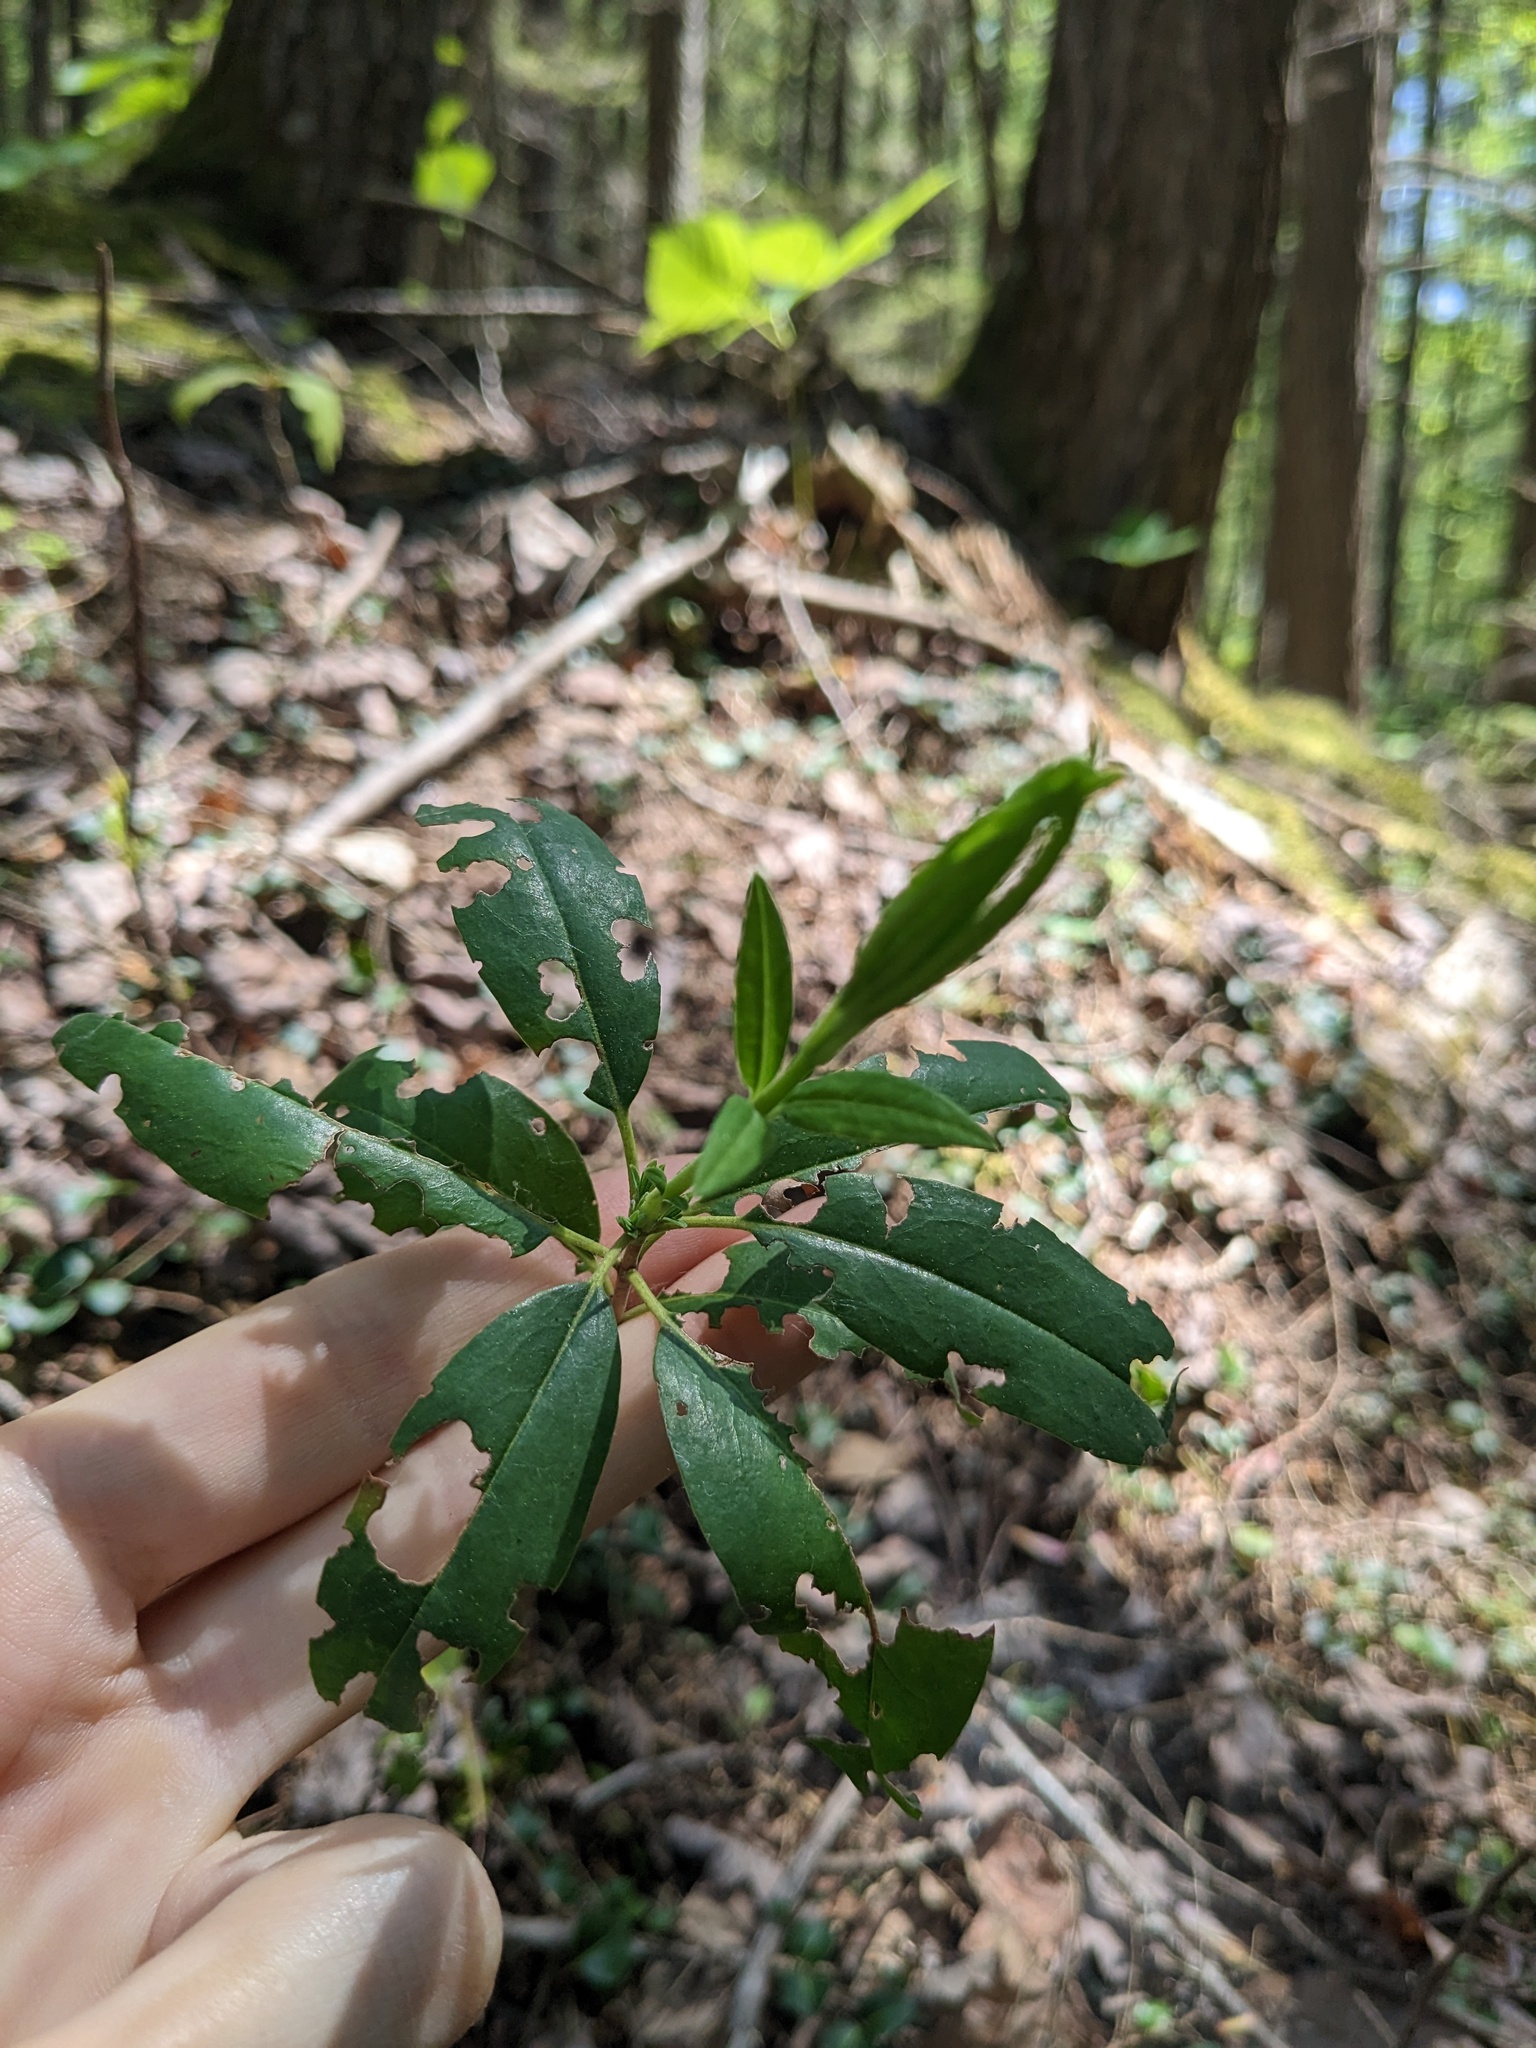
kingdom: Plantae
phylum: Tracheophyta
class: Magnoliopsida
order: Ericales
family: Ericaceae
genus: Kalmia
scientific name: Kalmia angustifolia
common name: Sheep-laurel
